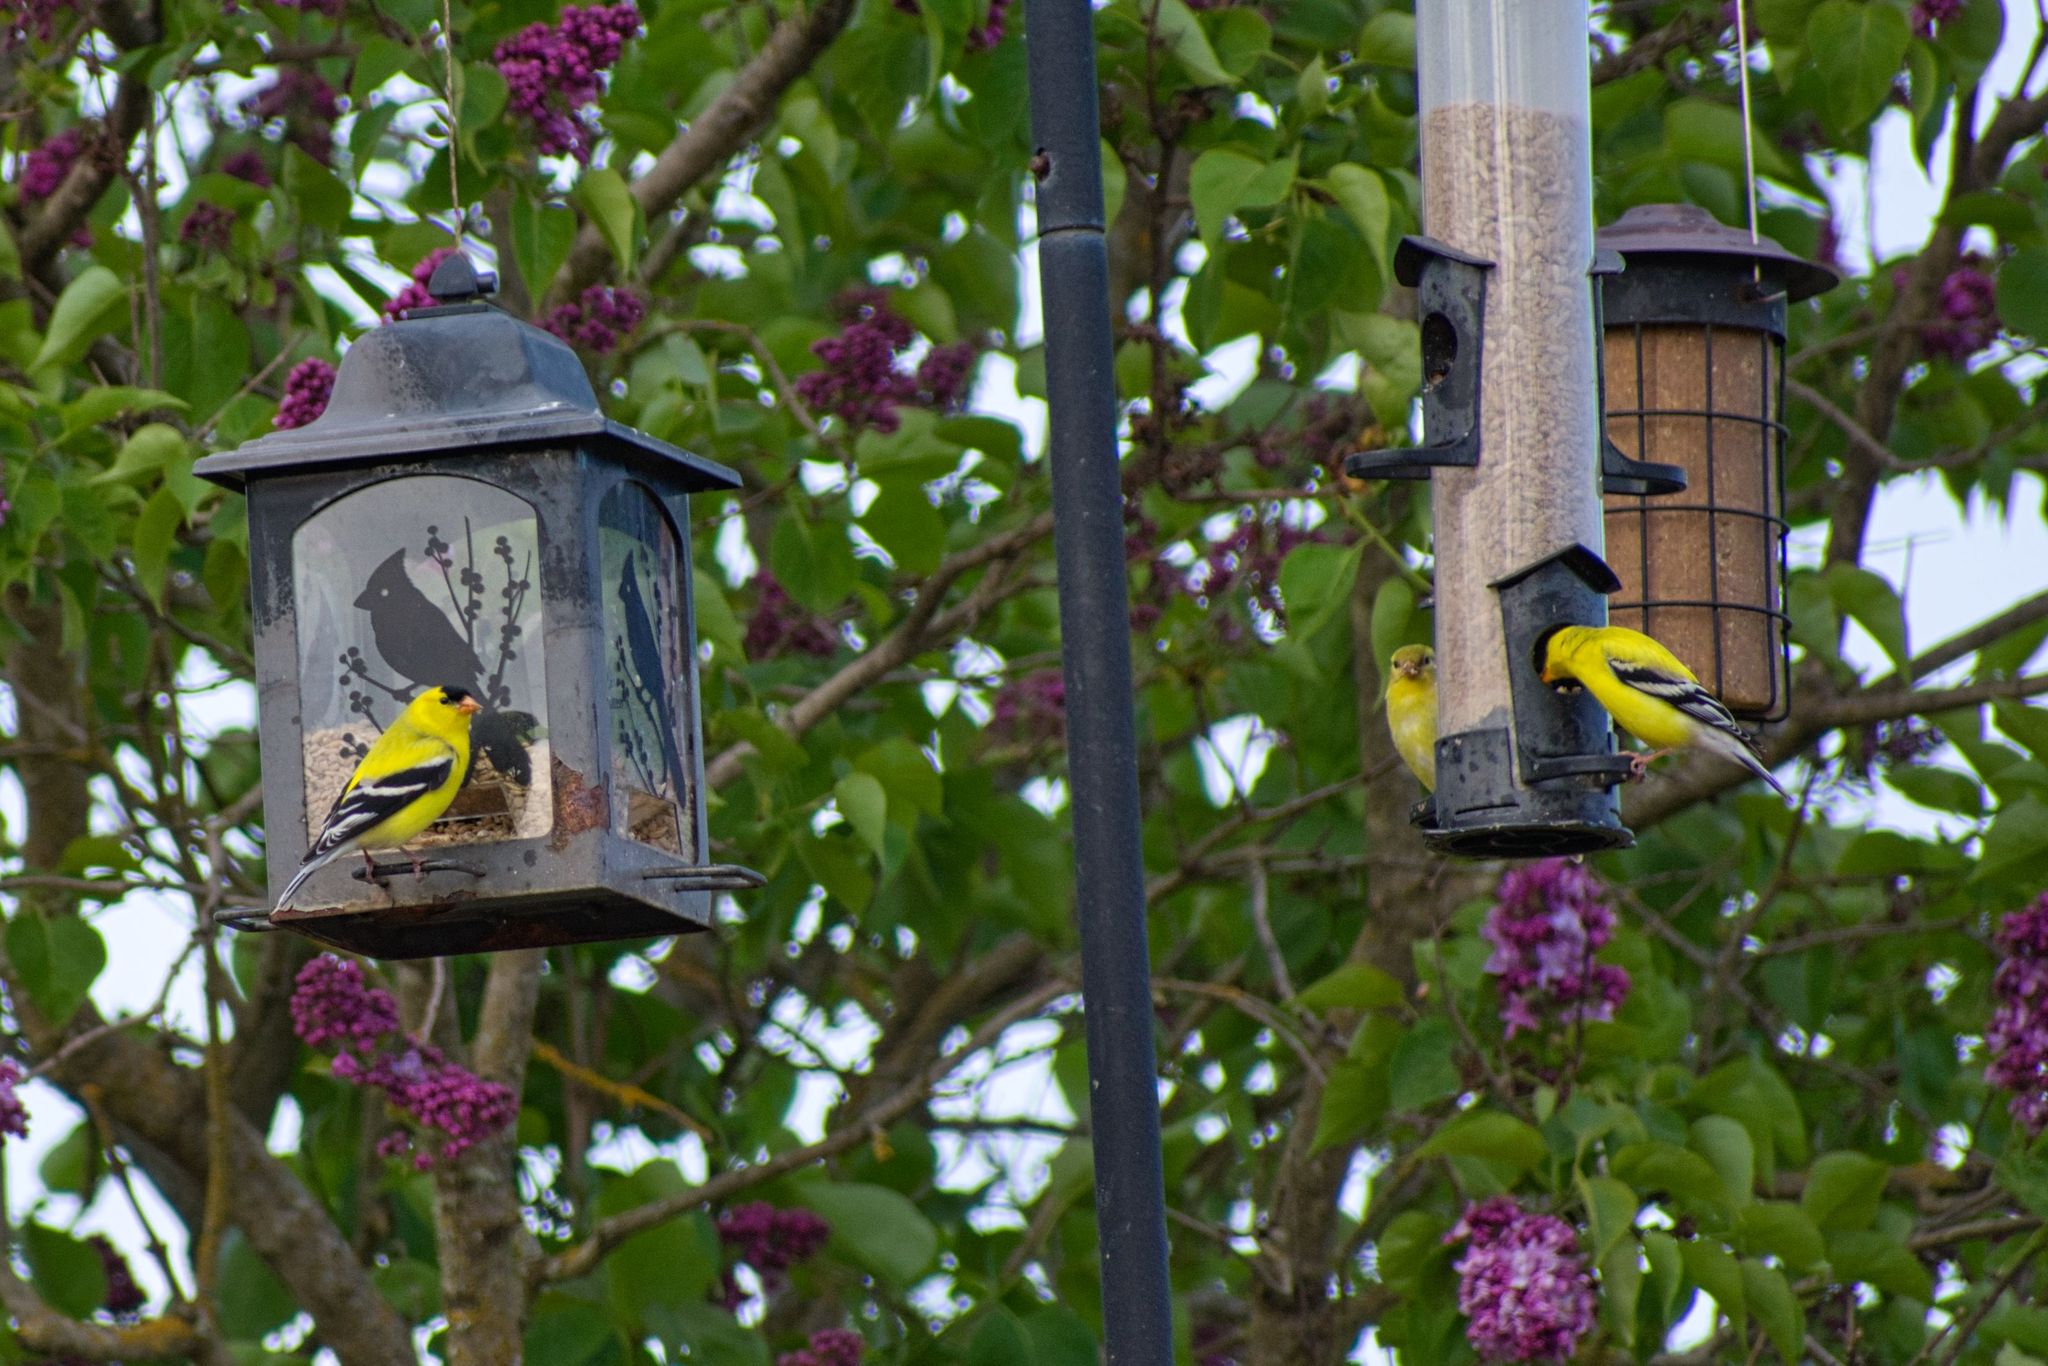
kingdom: Animalia
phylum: Chordata
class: Aves
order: Passeriformes
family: Fringillidae
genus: Spinus
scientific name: Spinus tristis
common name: American goldfinch
